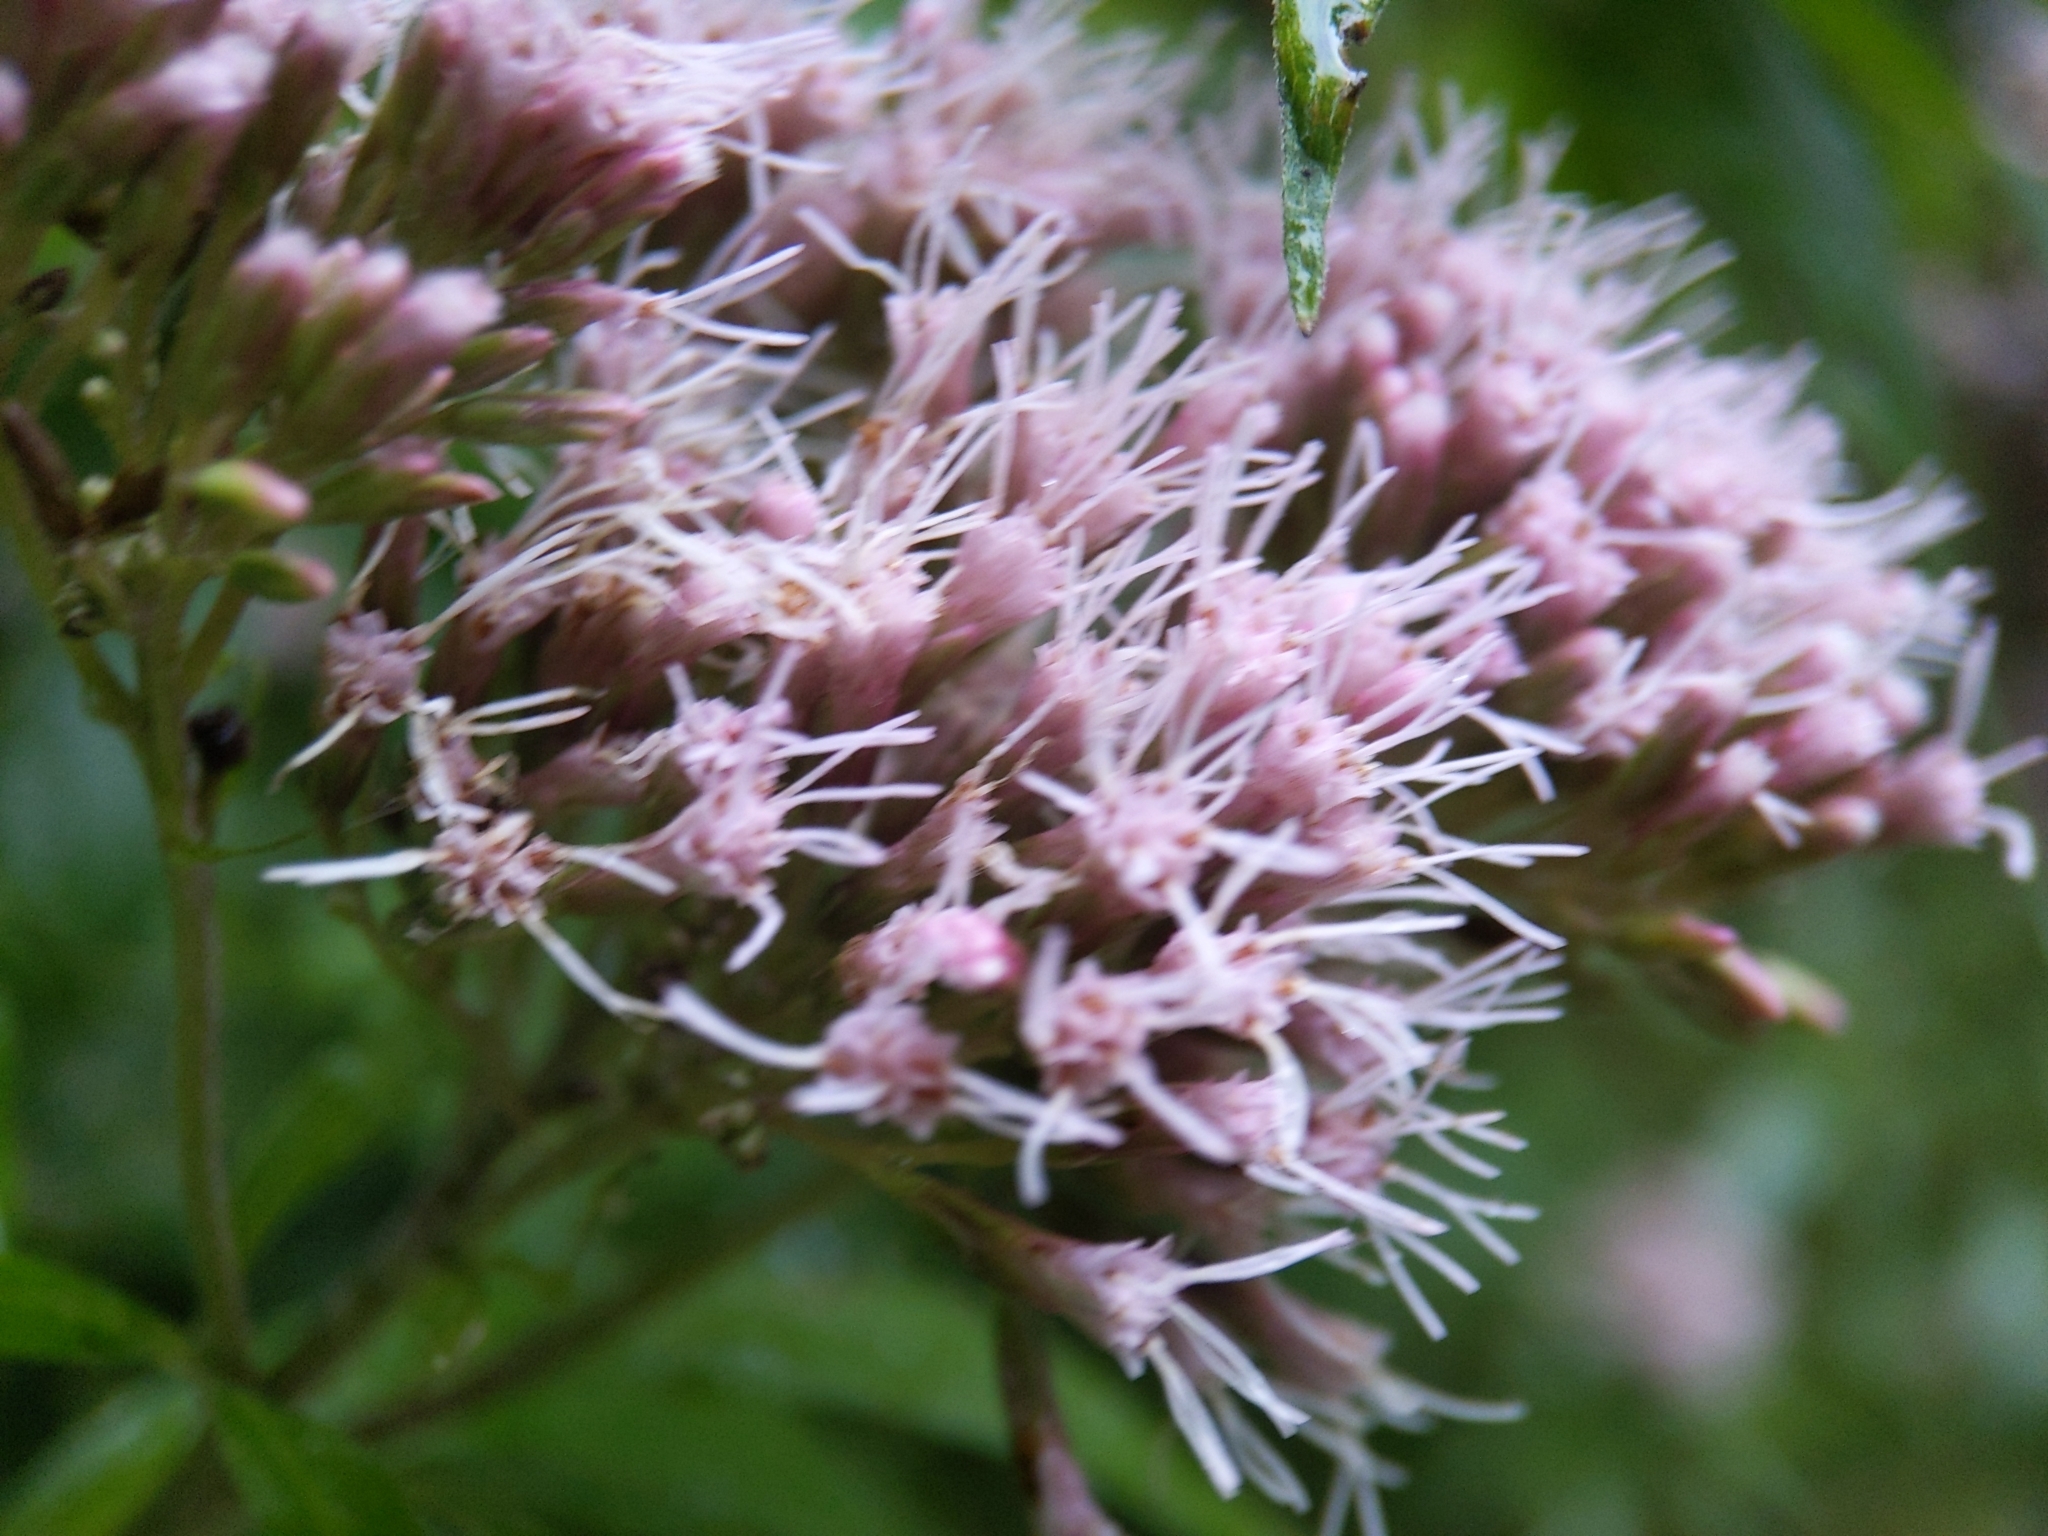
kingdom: Plantae
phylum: Tracheophyta
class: Magnoliopsida
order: Asterales
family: Asteraceae
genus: Eupatorium
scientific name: Eupatorium cannabinum
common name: Hemp-agrimony
